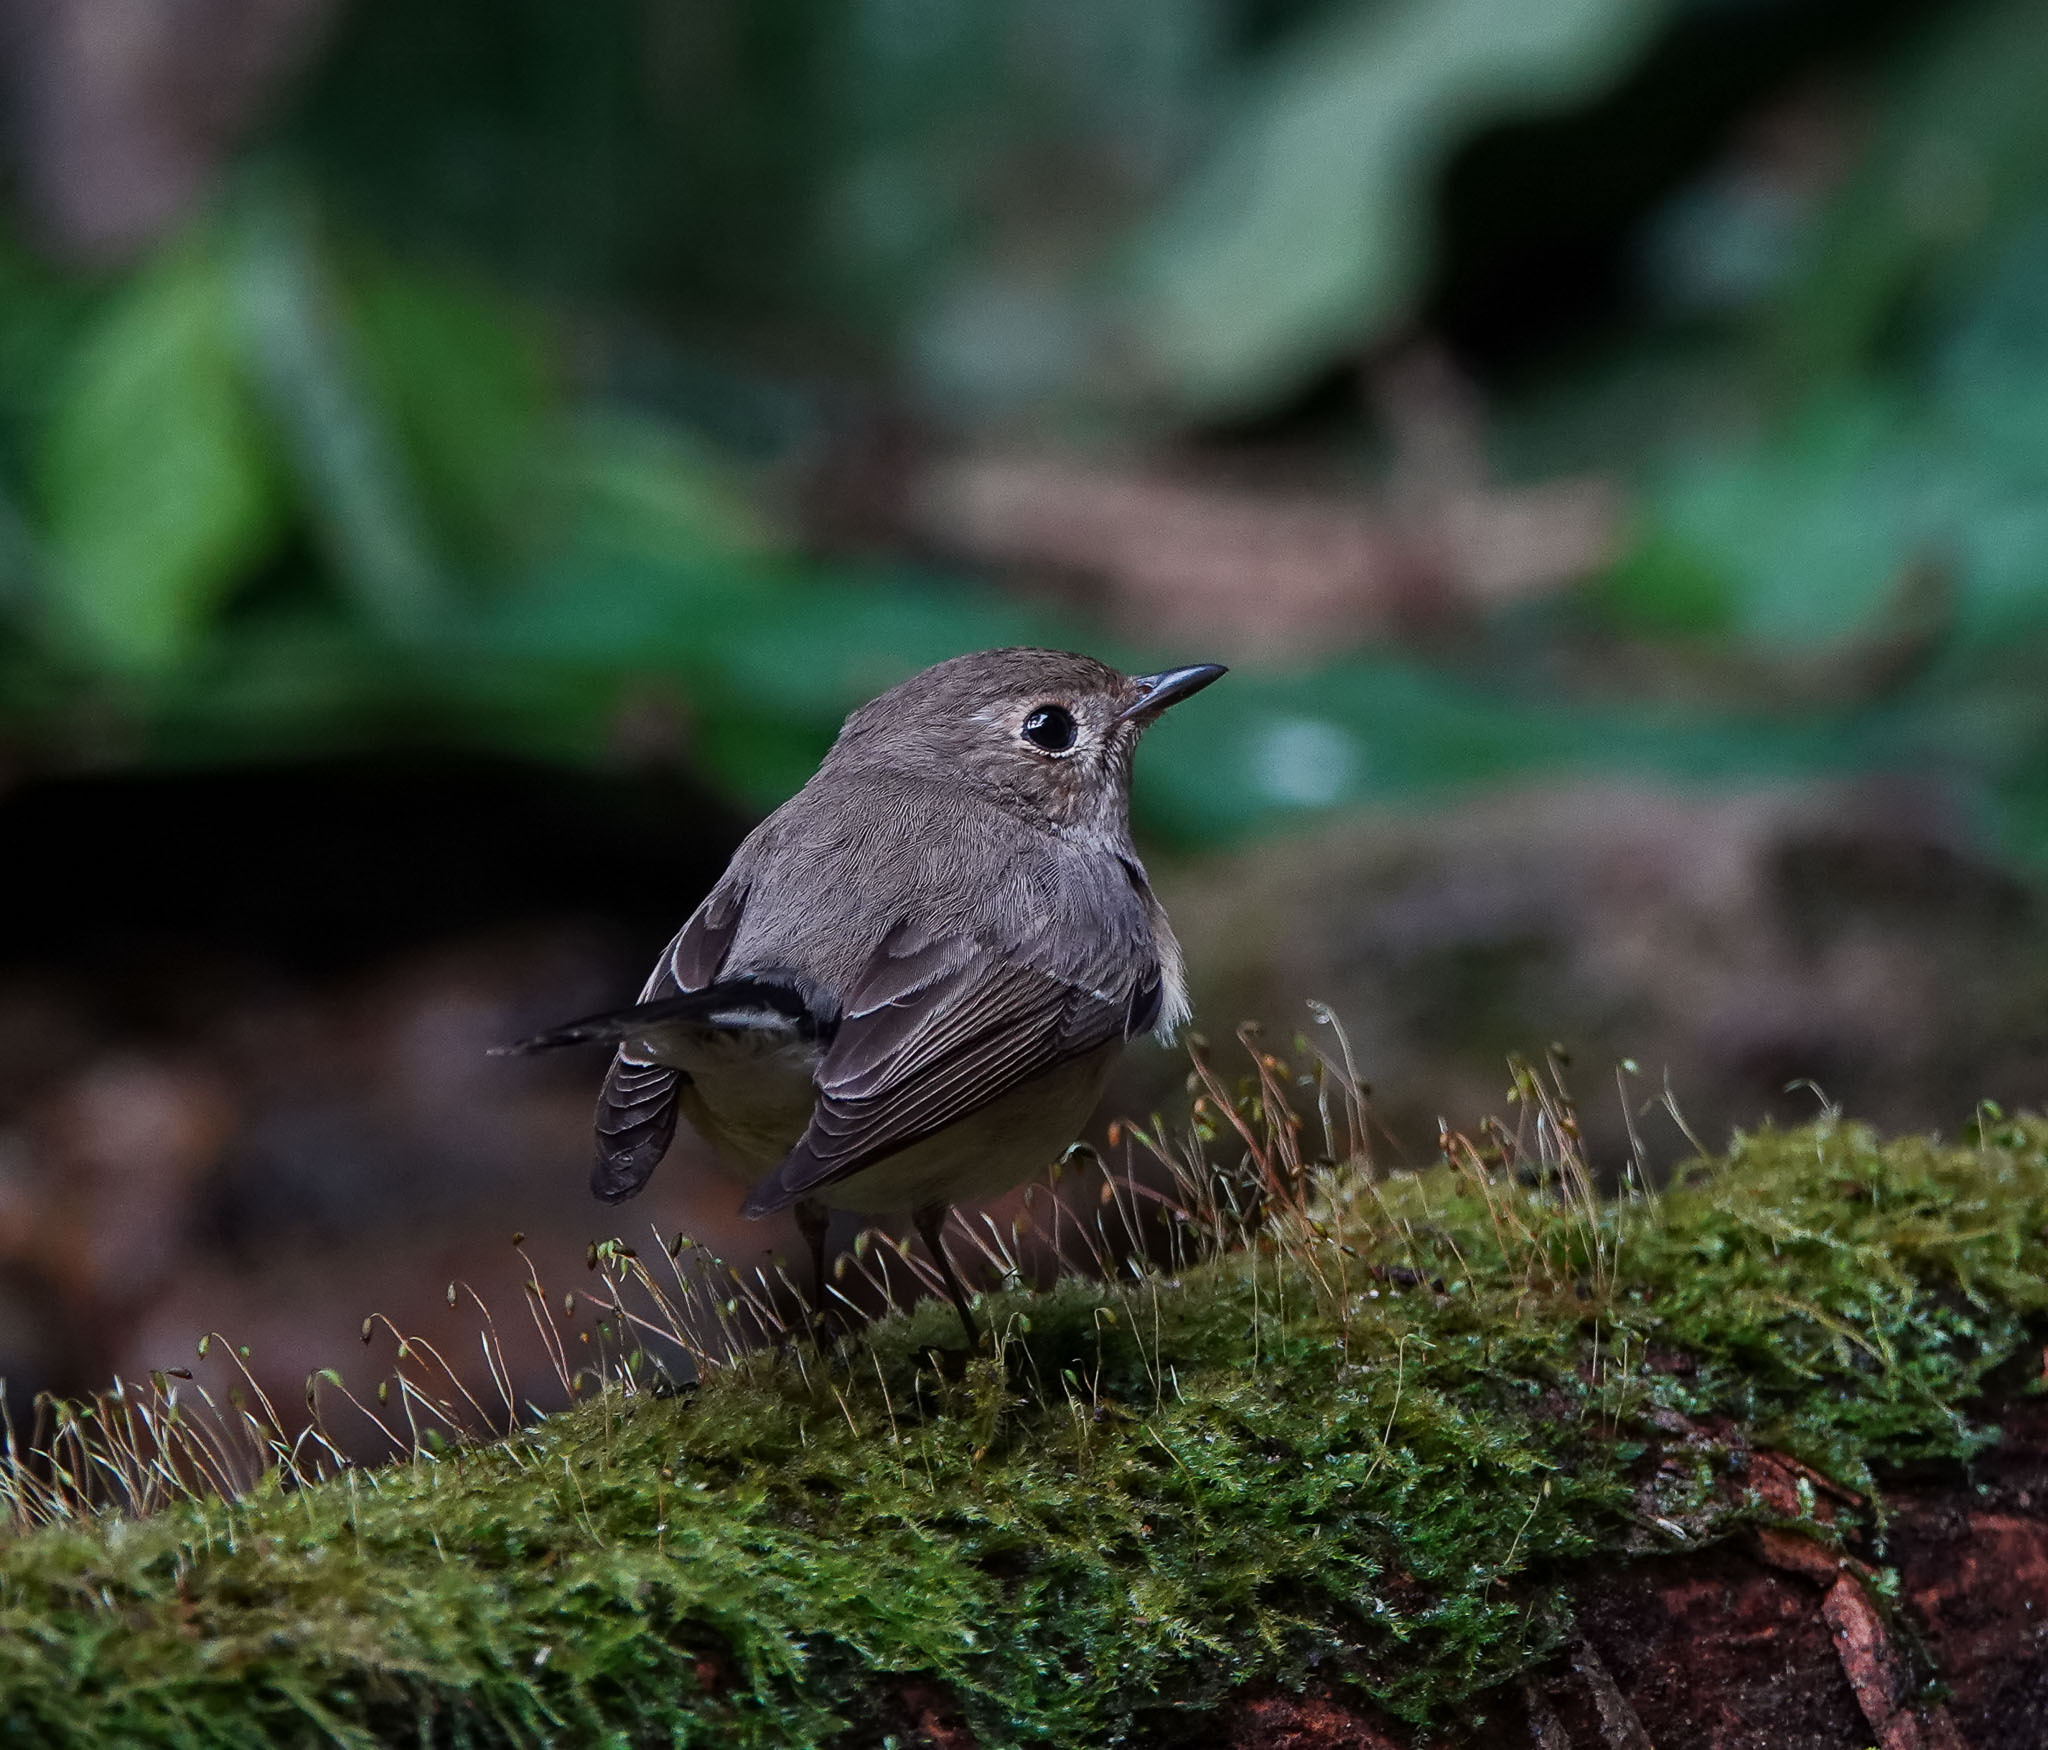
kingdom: Animalia
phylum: Chordata
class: Aves
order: Passeriformes
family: Muscicapidae
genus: Ficedula
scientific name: Ficedula albicilla
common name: Taiga flycatcher
